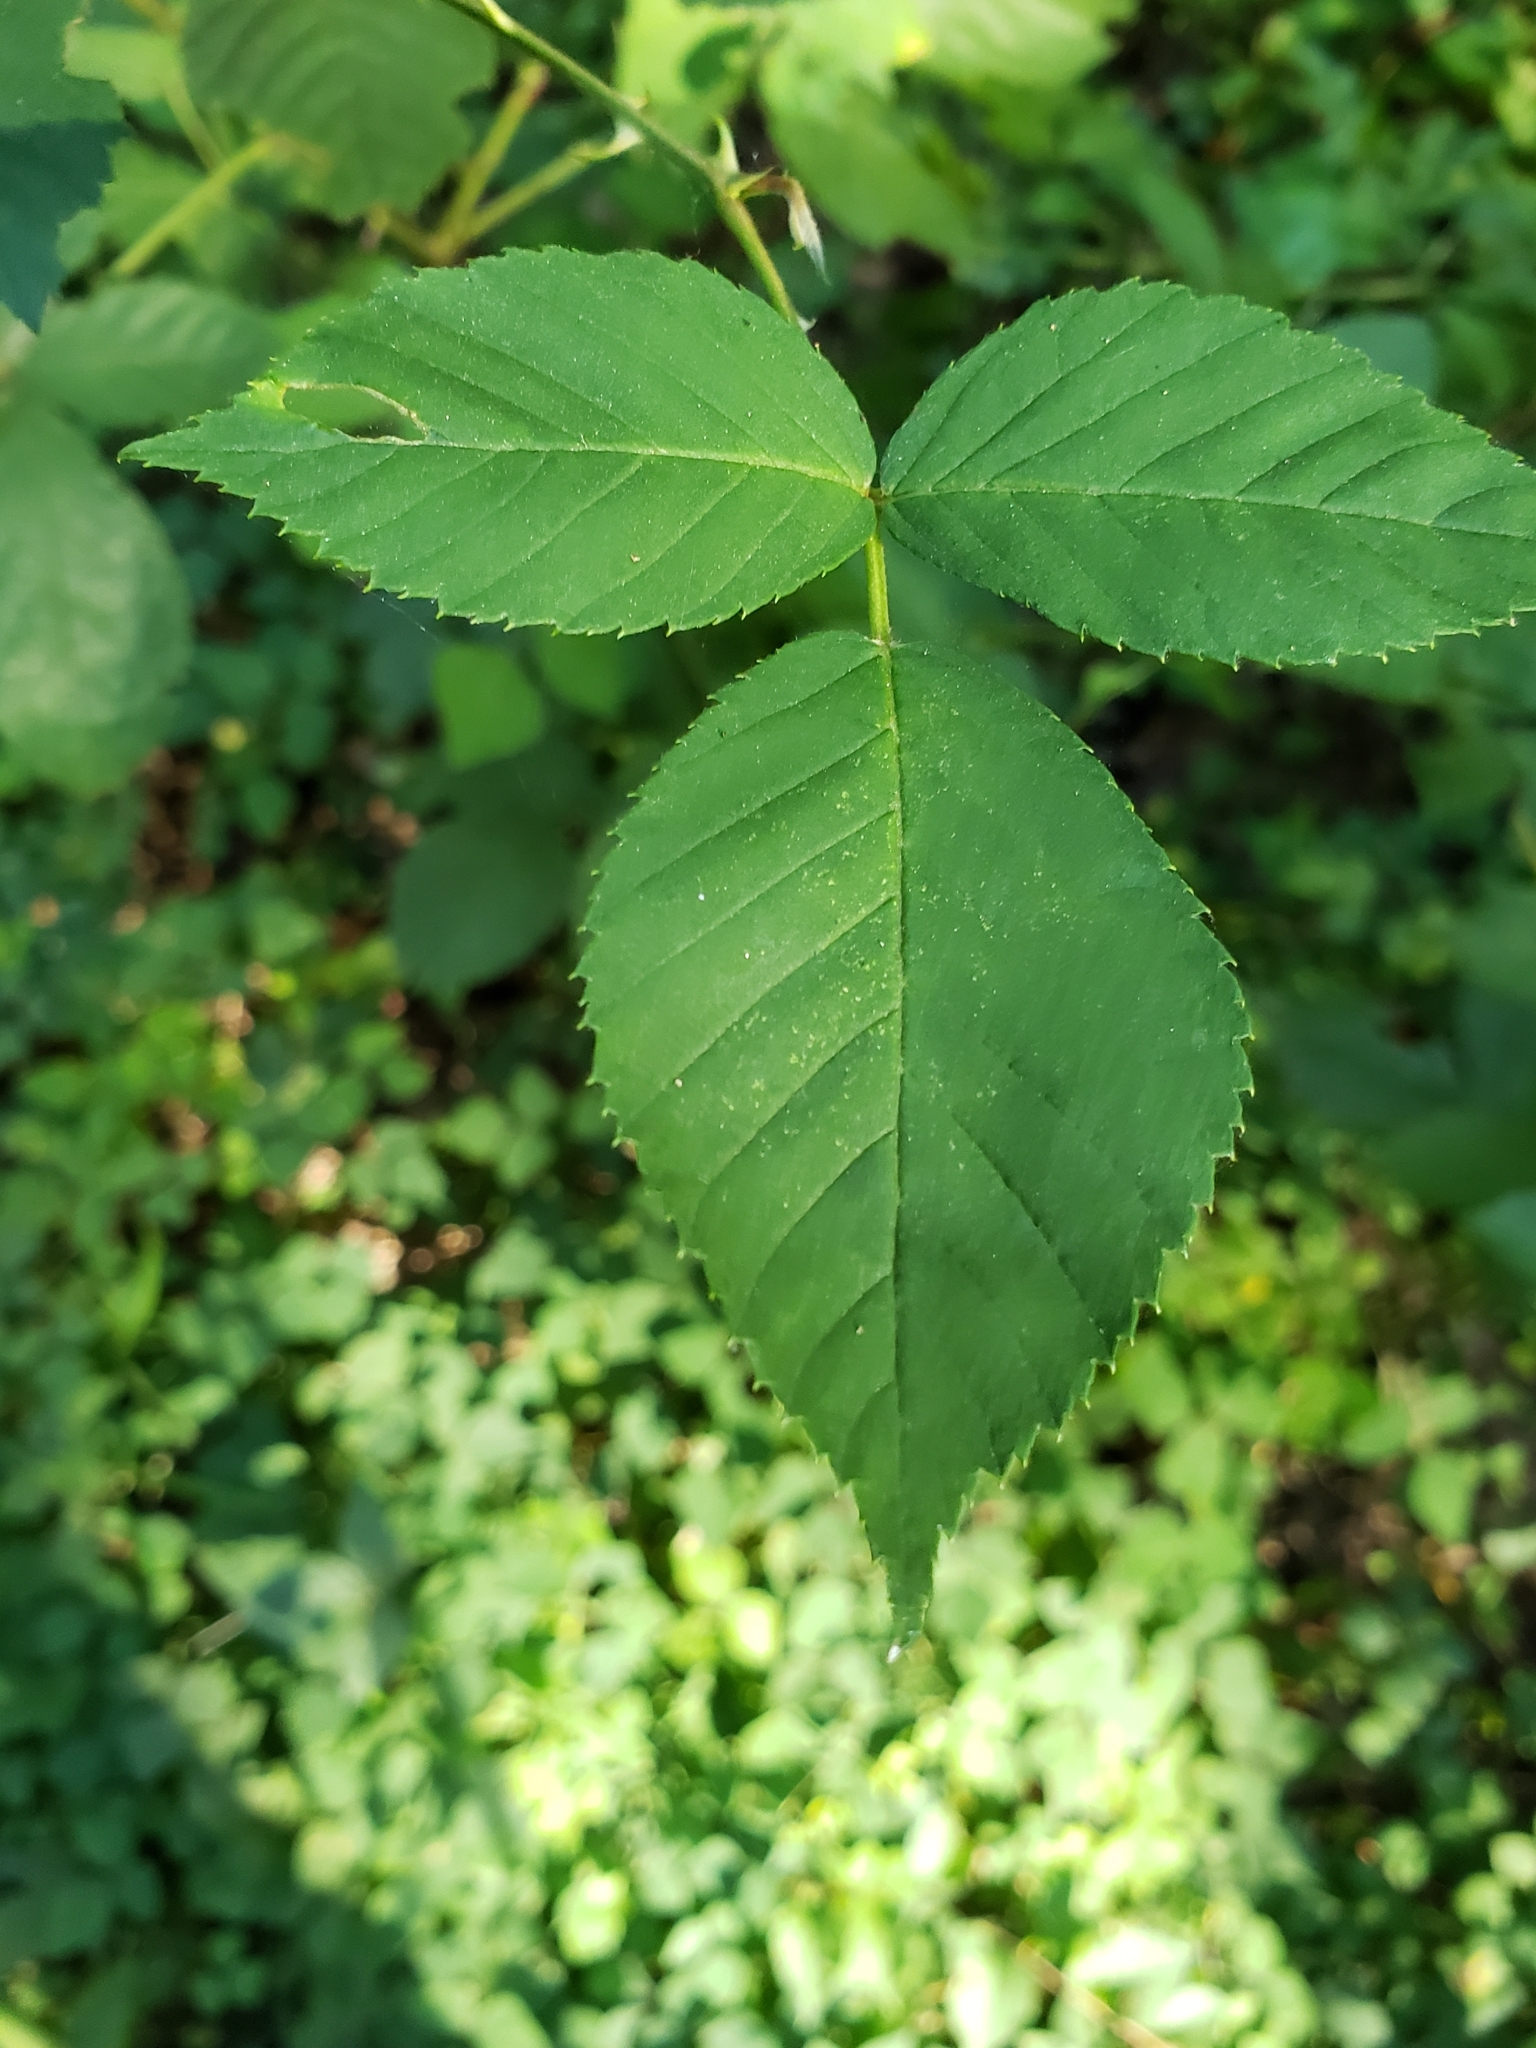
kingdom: Animalia
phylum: Arthropoda
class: Insecta
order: Diptera
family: Cecidomyiidae
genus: Neolasioptera
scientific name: Neolasioptera farinosa
